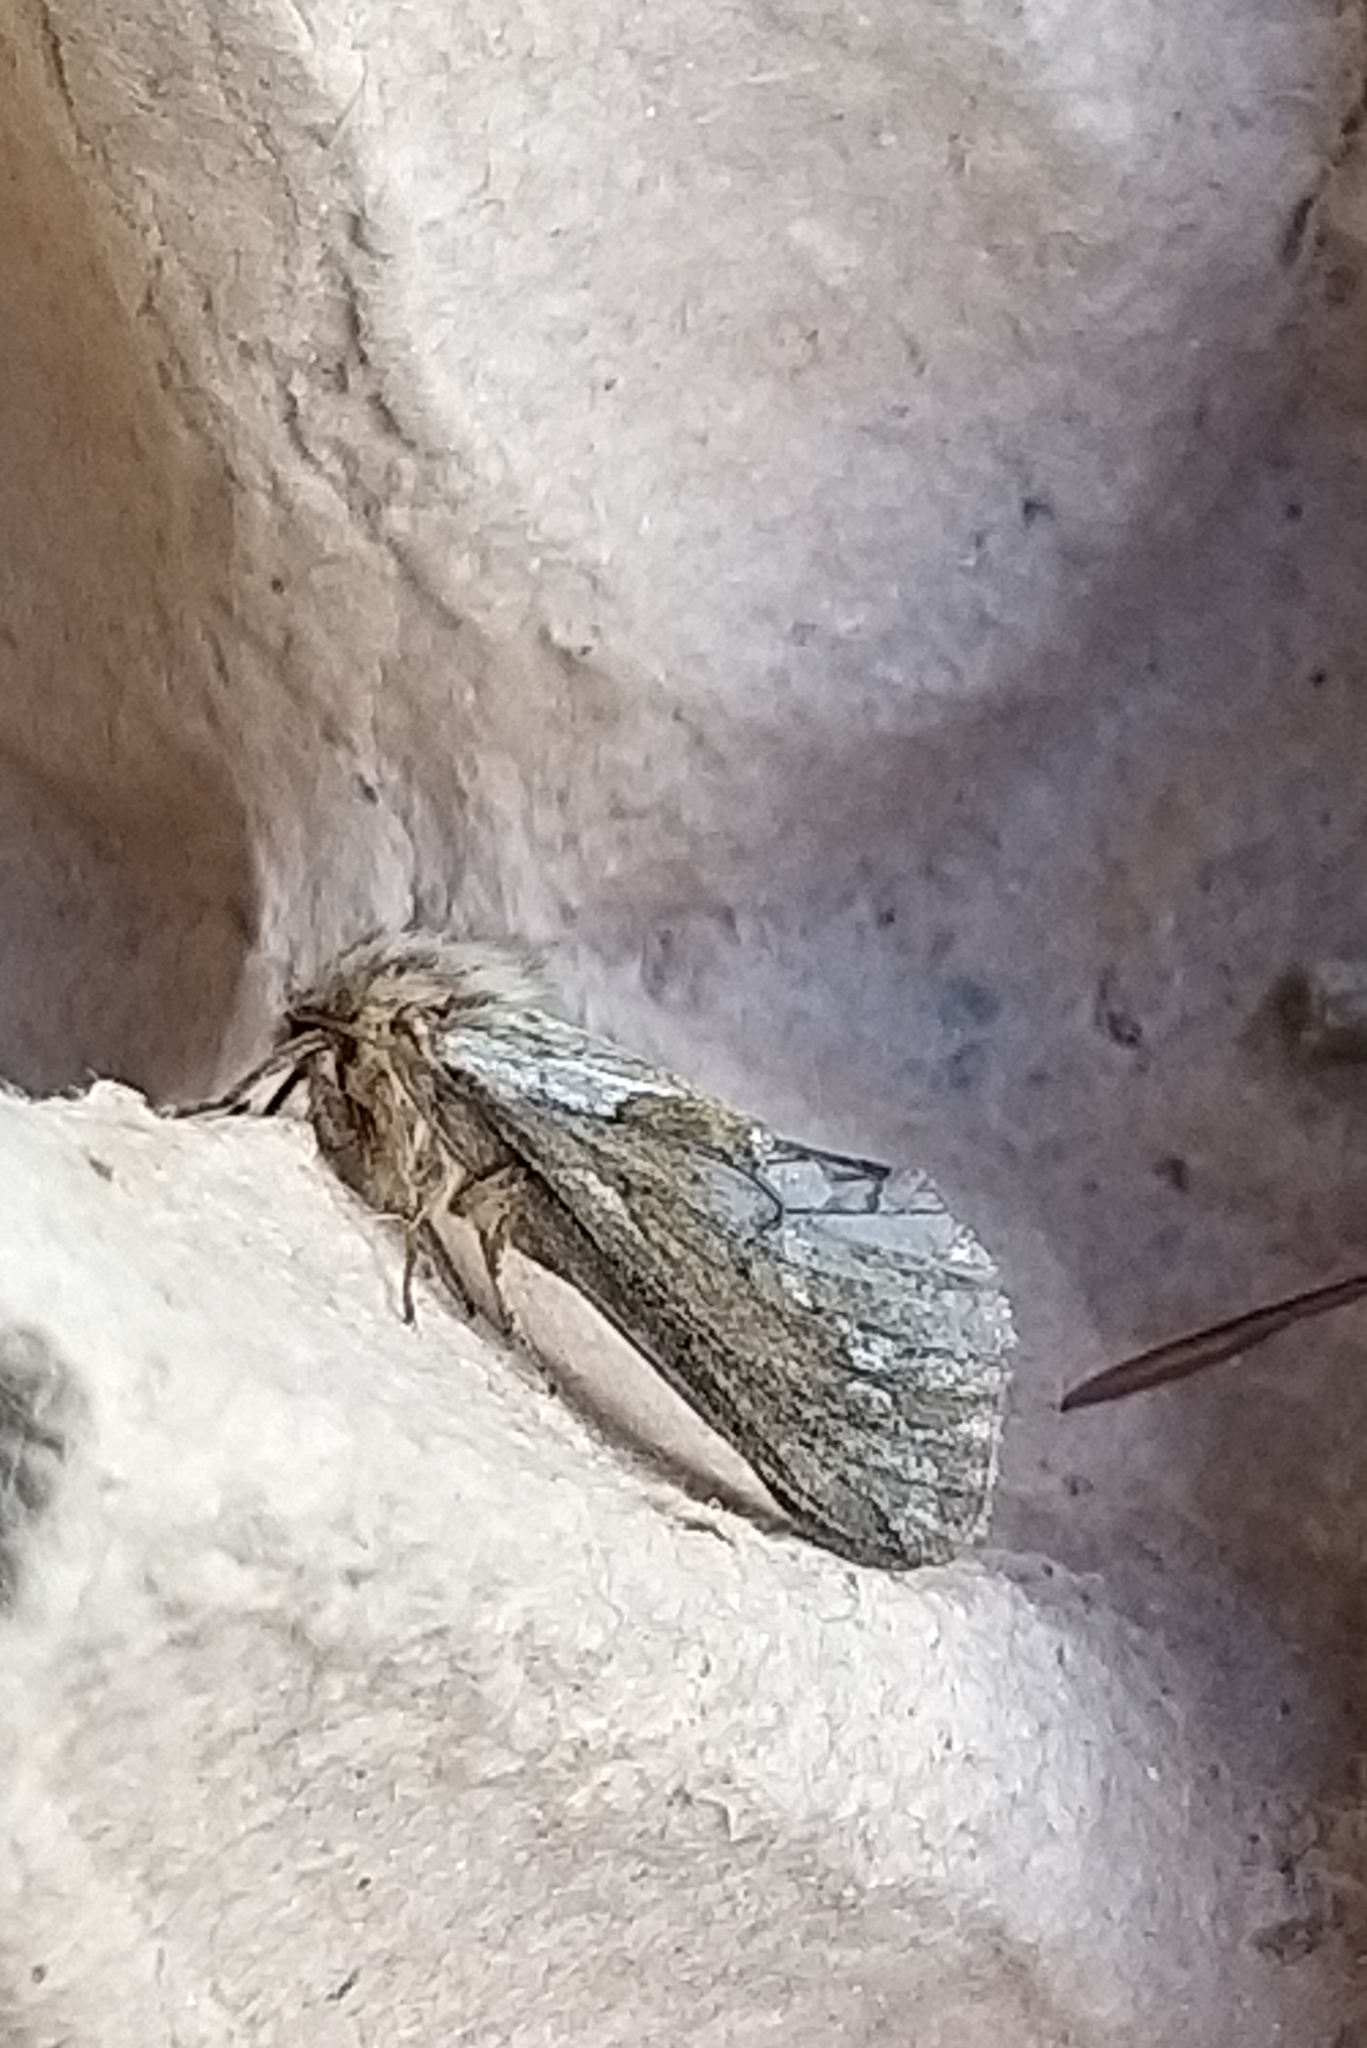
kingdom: Animalia
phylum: Arthropoda
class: Insecta
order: Lepidoptera
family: Hepialidae
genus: Korscheltellus
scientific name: Korscheltellus lupulina
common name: Common swift
